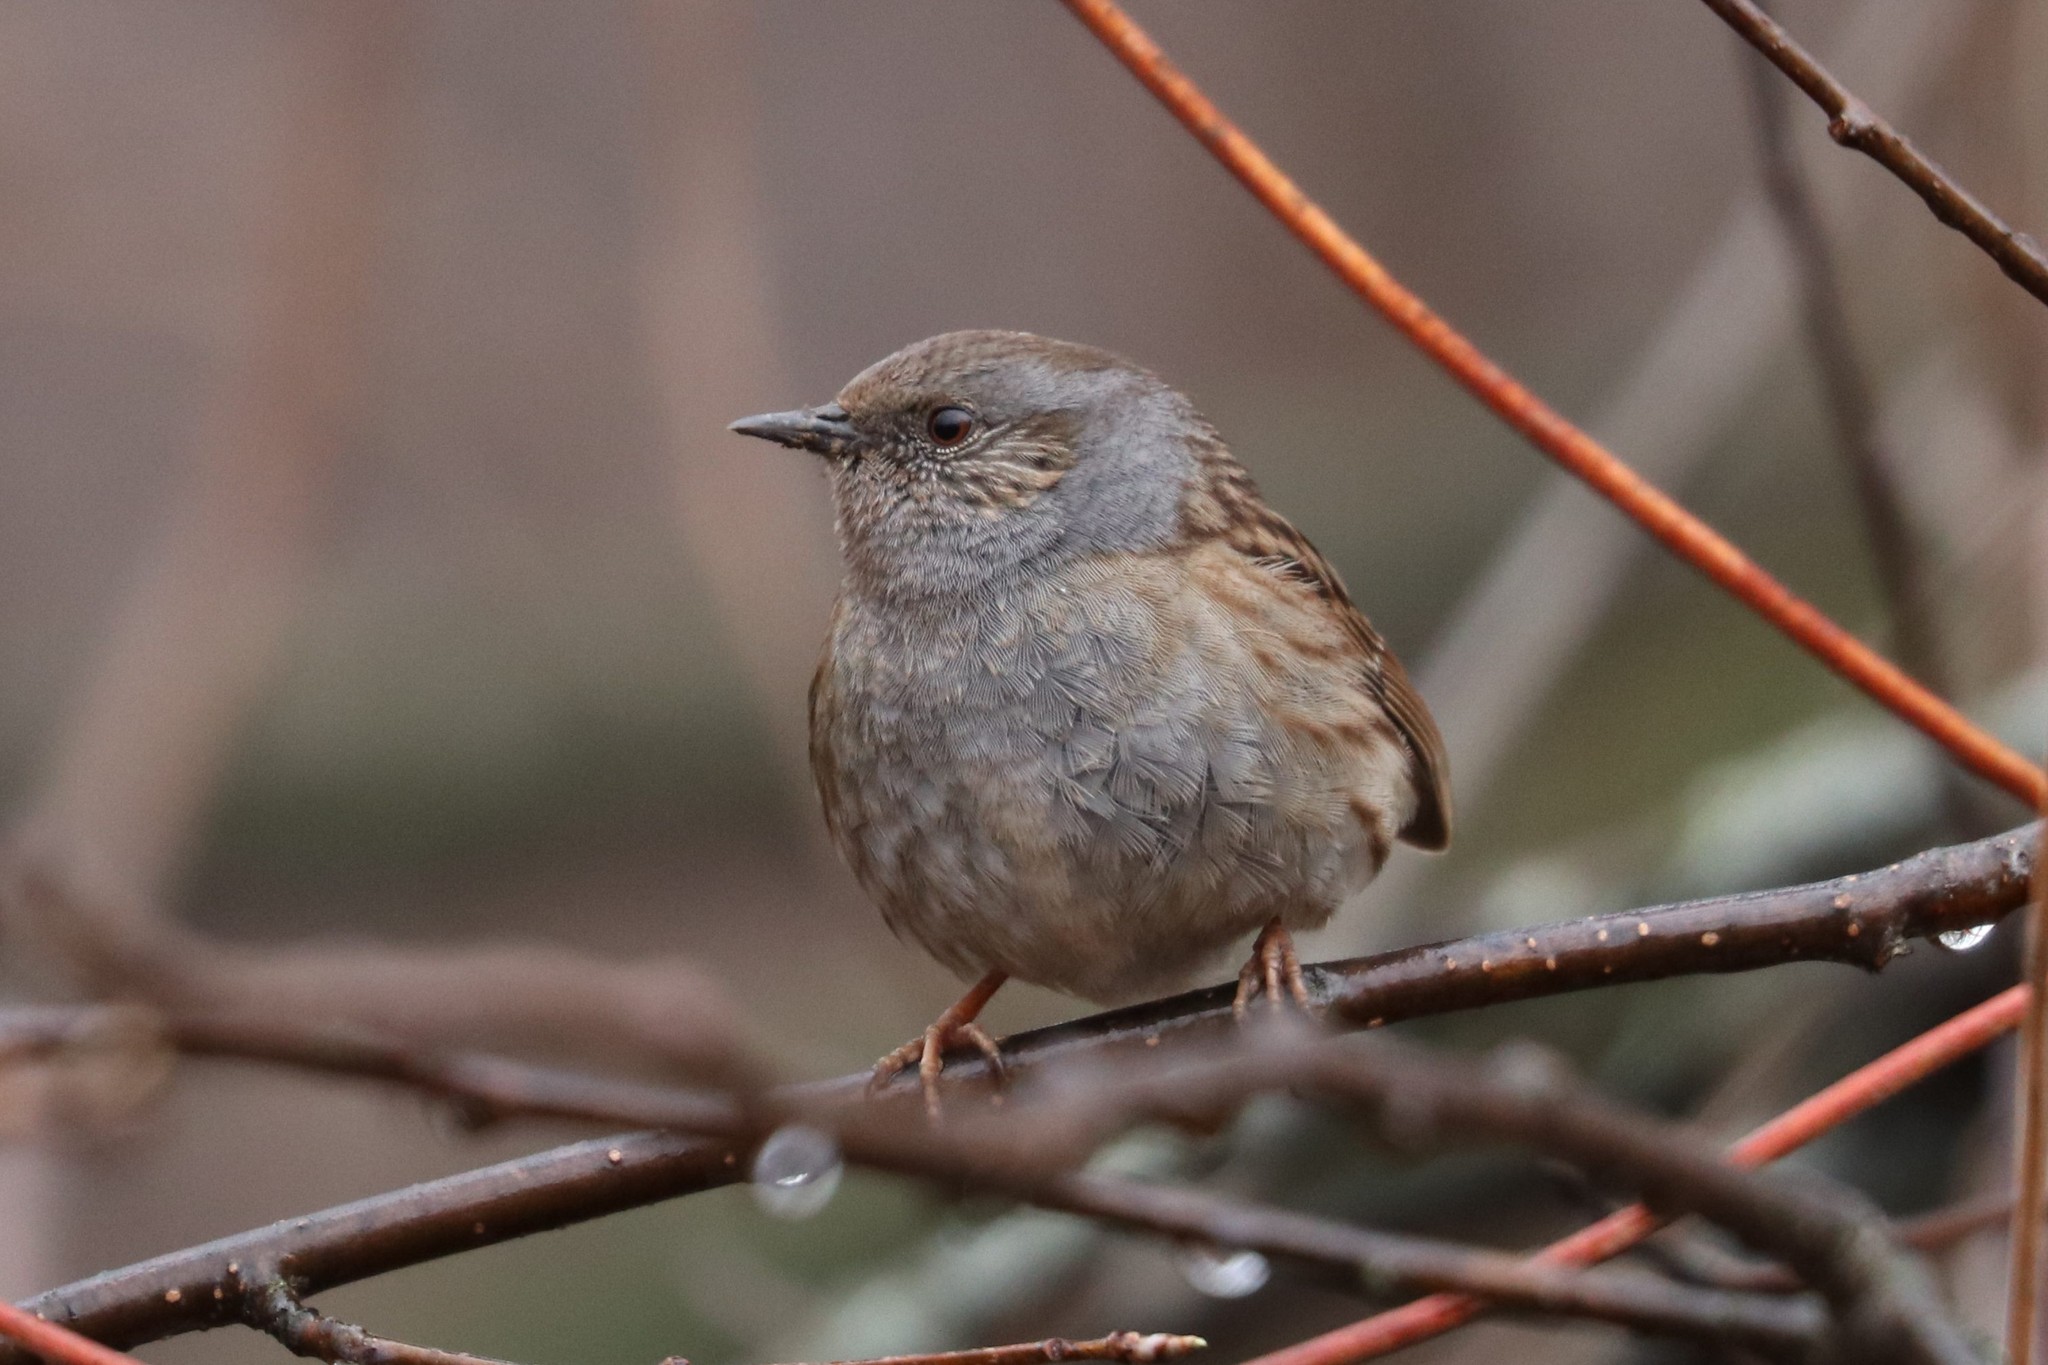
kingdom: Animalia
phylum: Chordata
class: Aves
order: Passeriformes
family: Prunellidae
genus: Prunella
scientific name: Prunella modularis
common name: Dunnock
